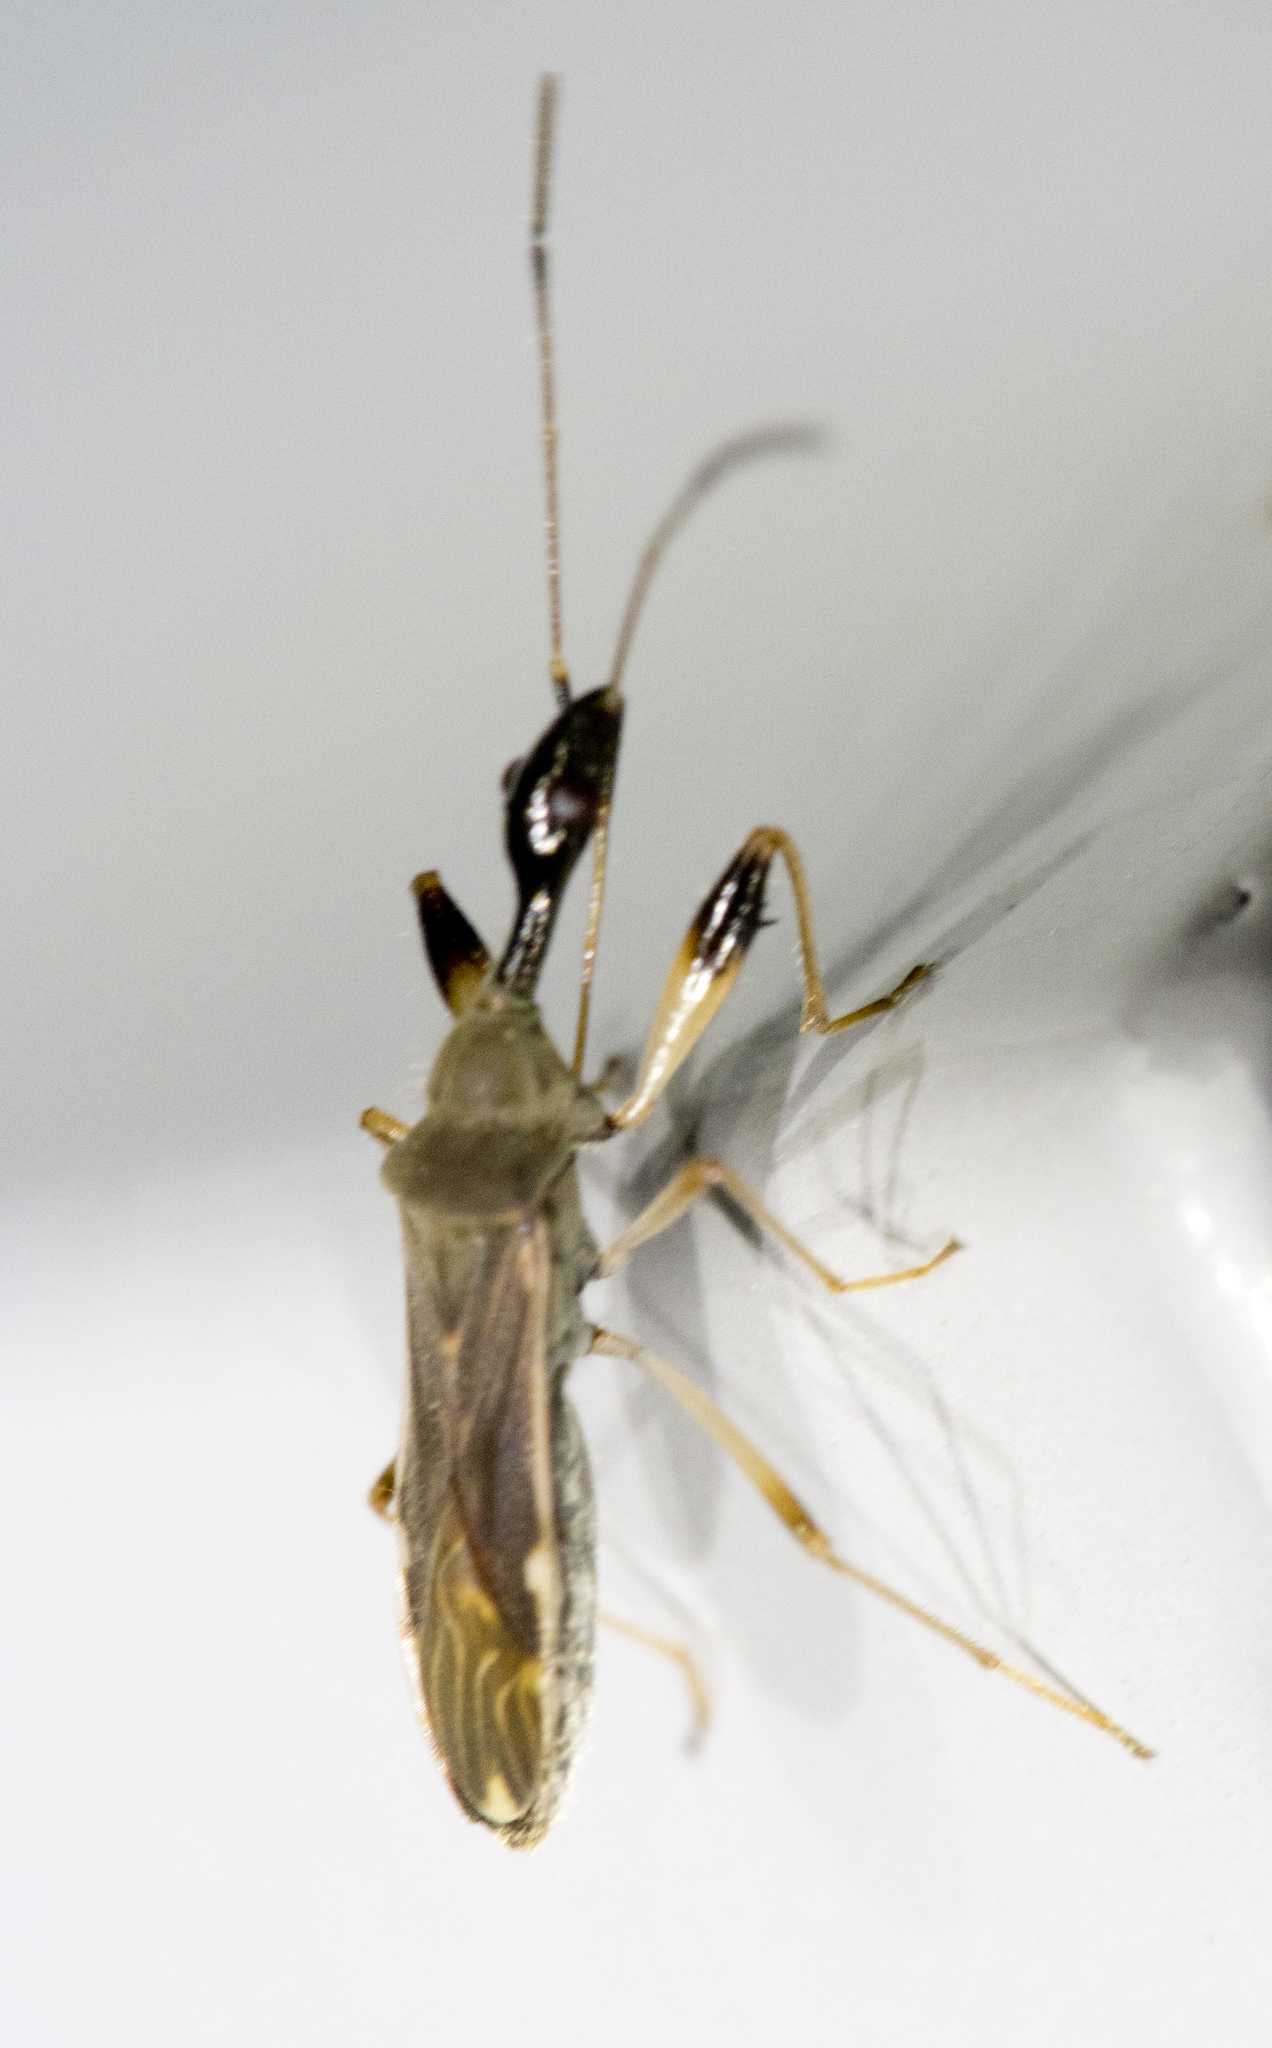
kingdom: Animalia
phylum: Arthropoda
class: Insecta
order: Hemiptera
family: Rhyparochromidae
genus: Myodocha
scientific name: Myodocha serripes
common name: Long-necked seed bug
